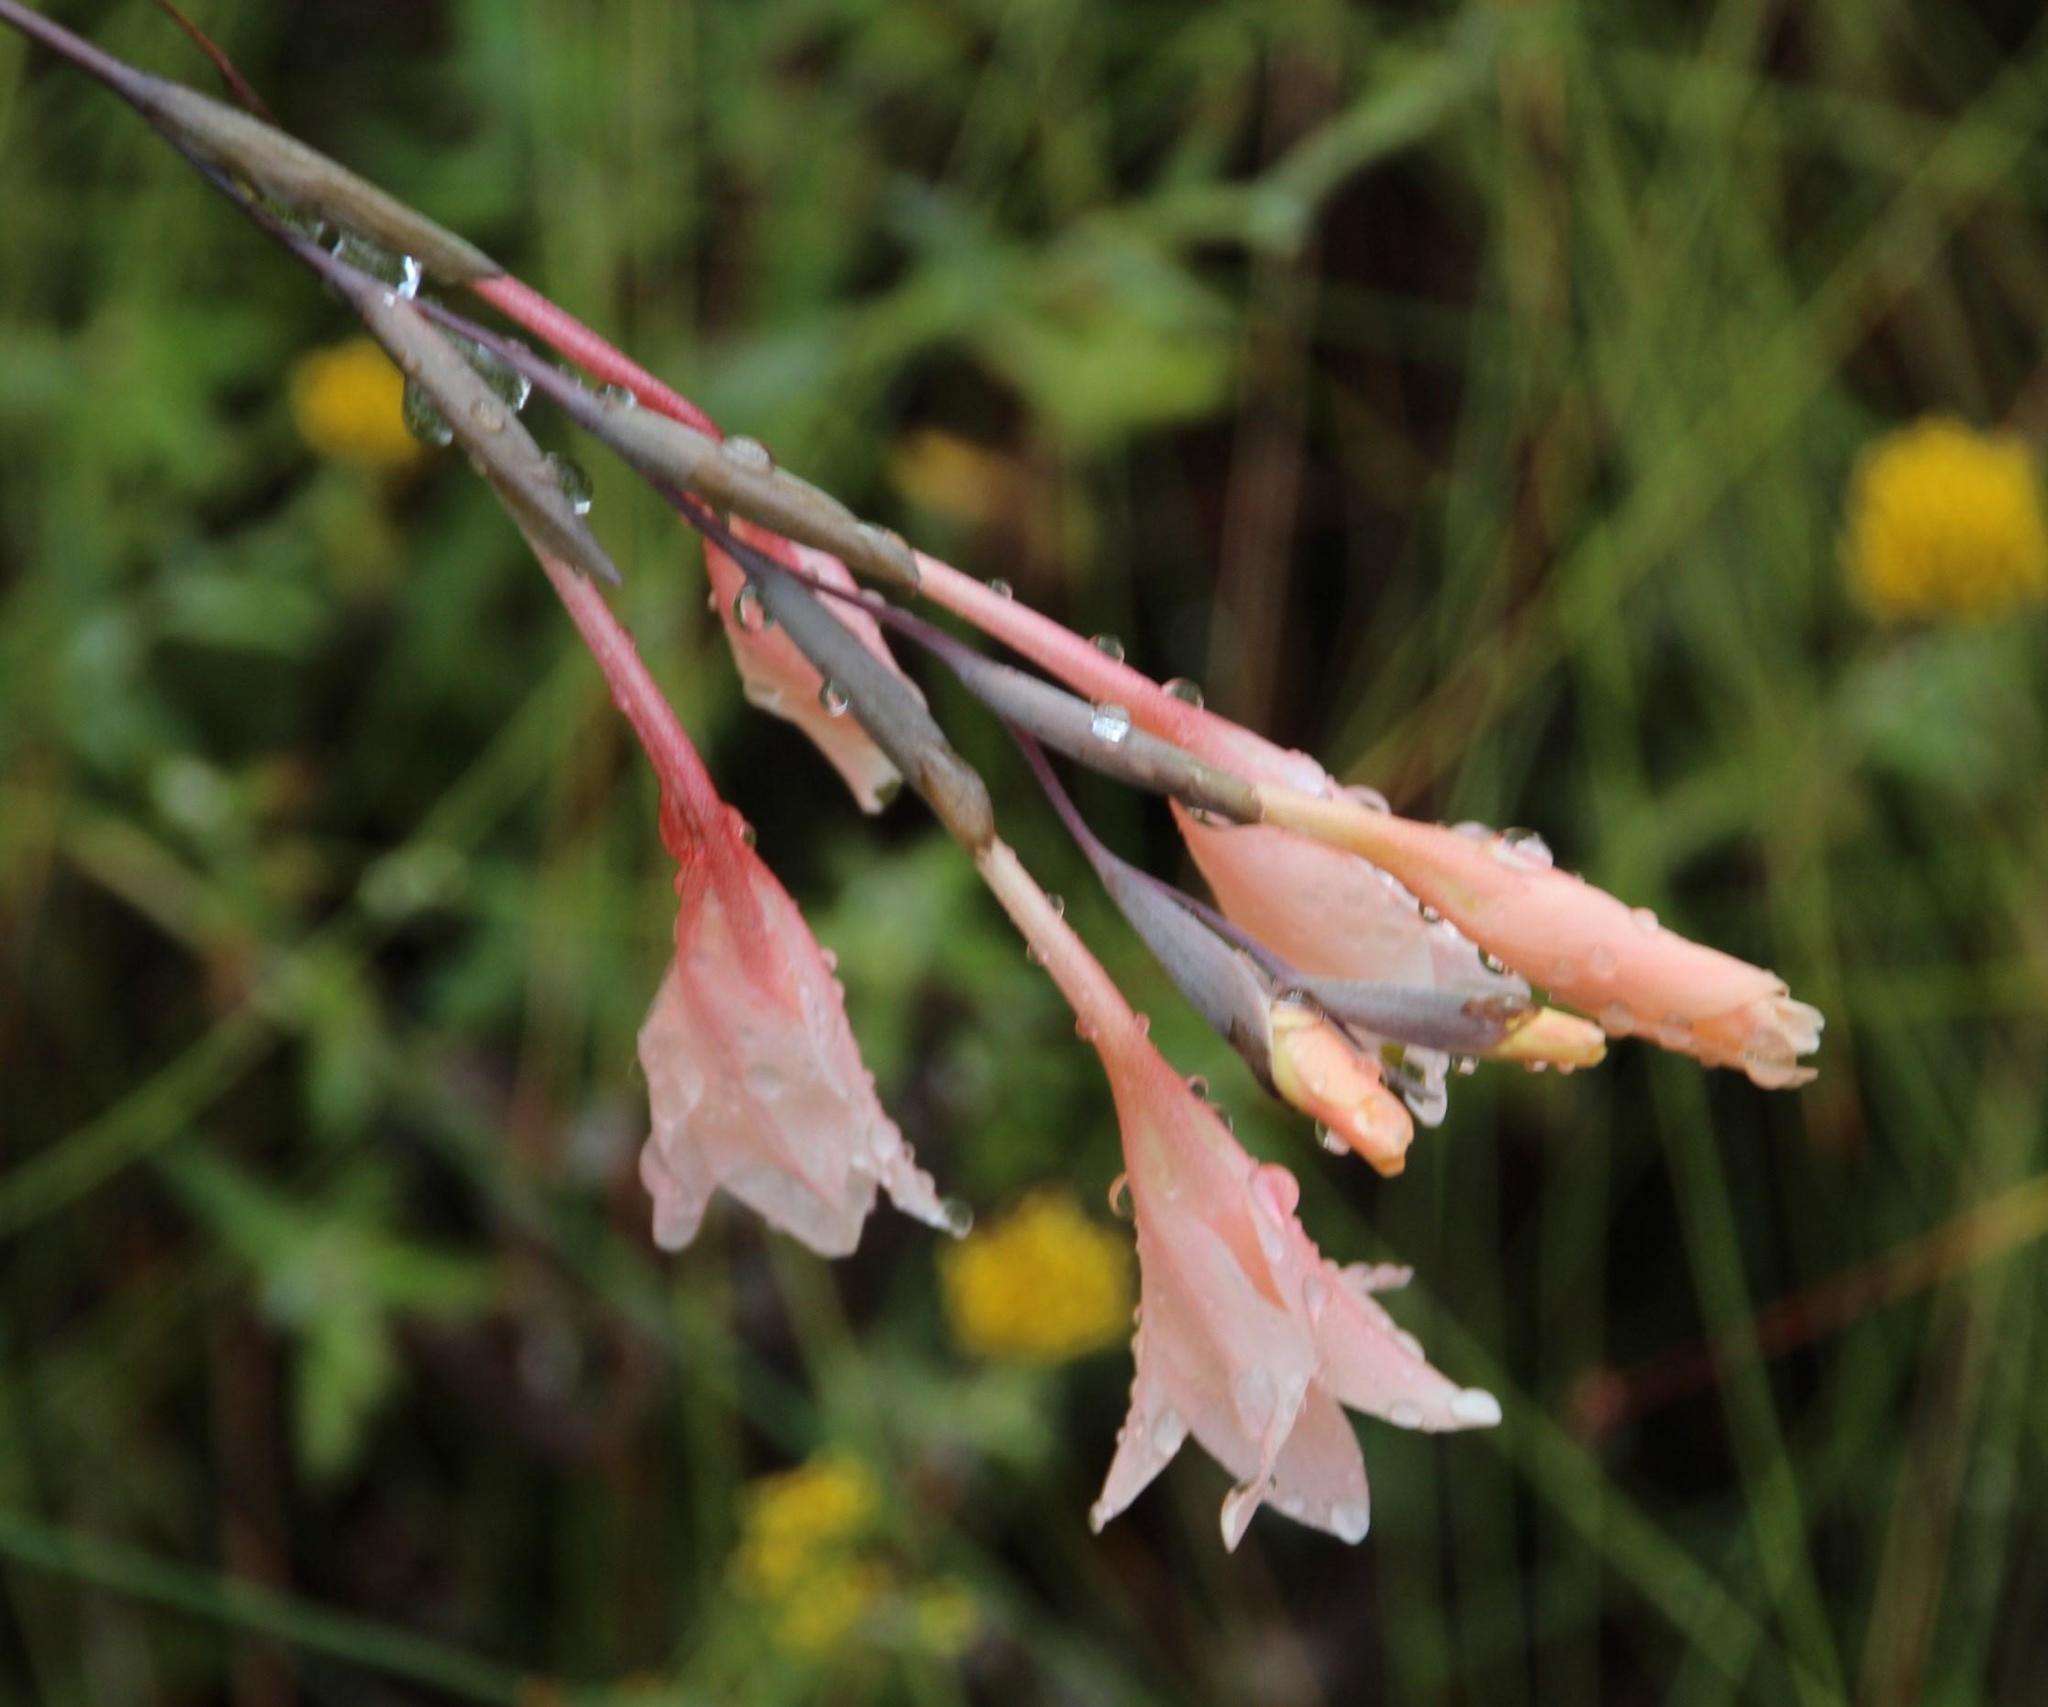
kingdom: Plantae
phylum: Tracheophyta
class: Liliopsida
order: Asparagales
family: Iridaceae
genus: Gladiolus
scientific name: Gladiolus monticola
